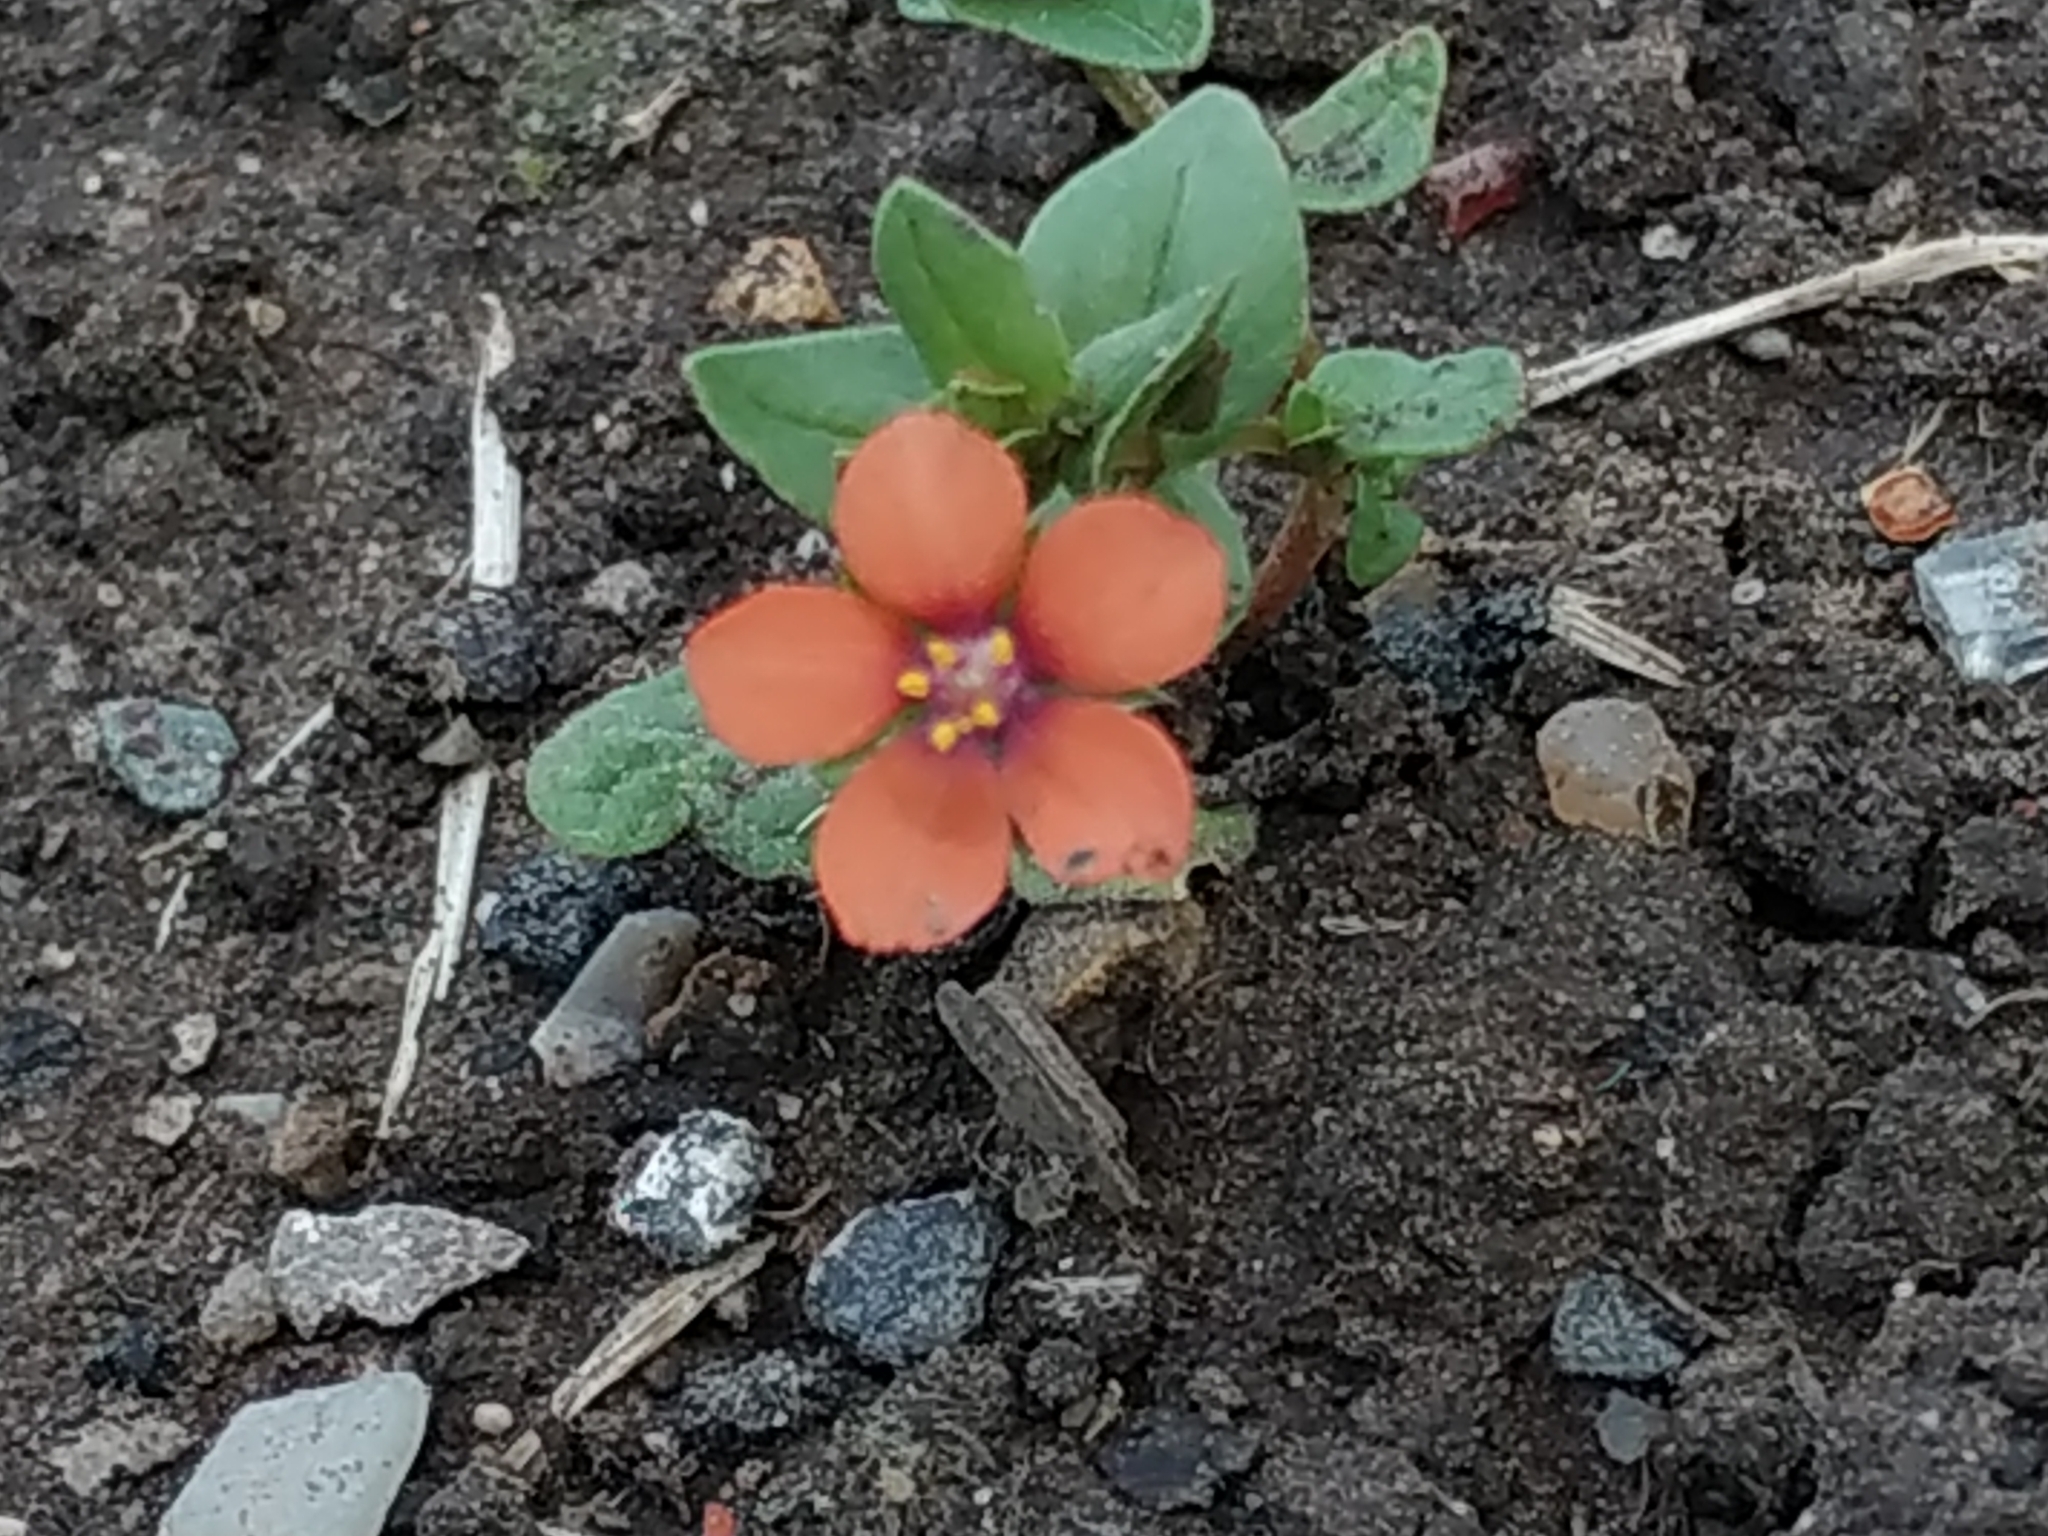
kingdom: Plantae
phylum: Tracheophyta
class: Magnoliopsida
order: Ericales
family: Primulaceae
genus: Lysimachia
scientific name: Lysimachia arvensis
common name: Scarlet pimpernel
